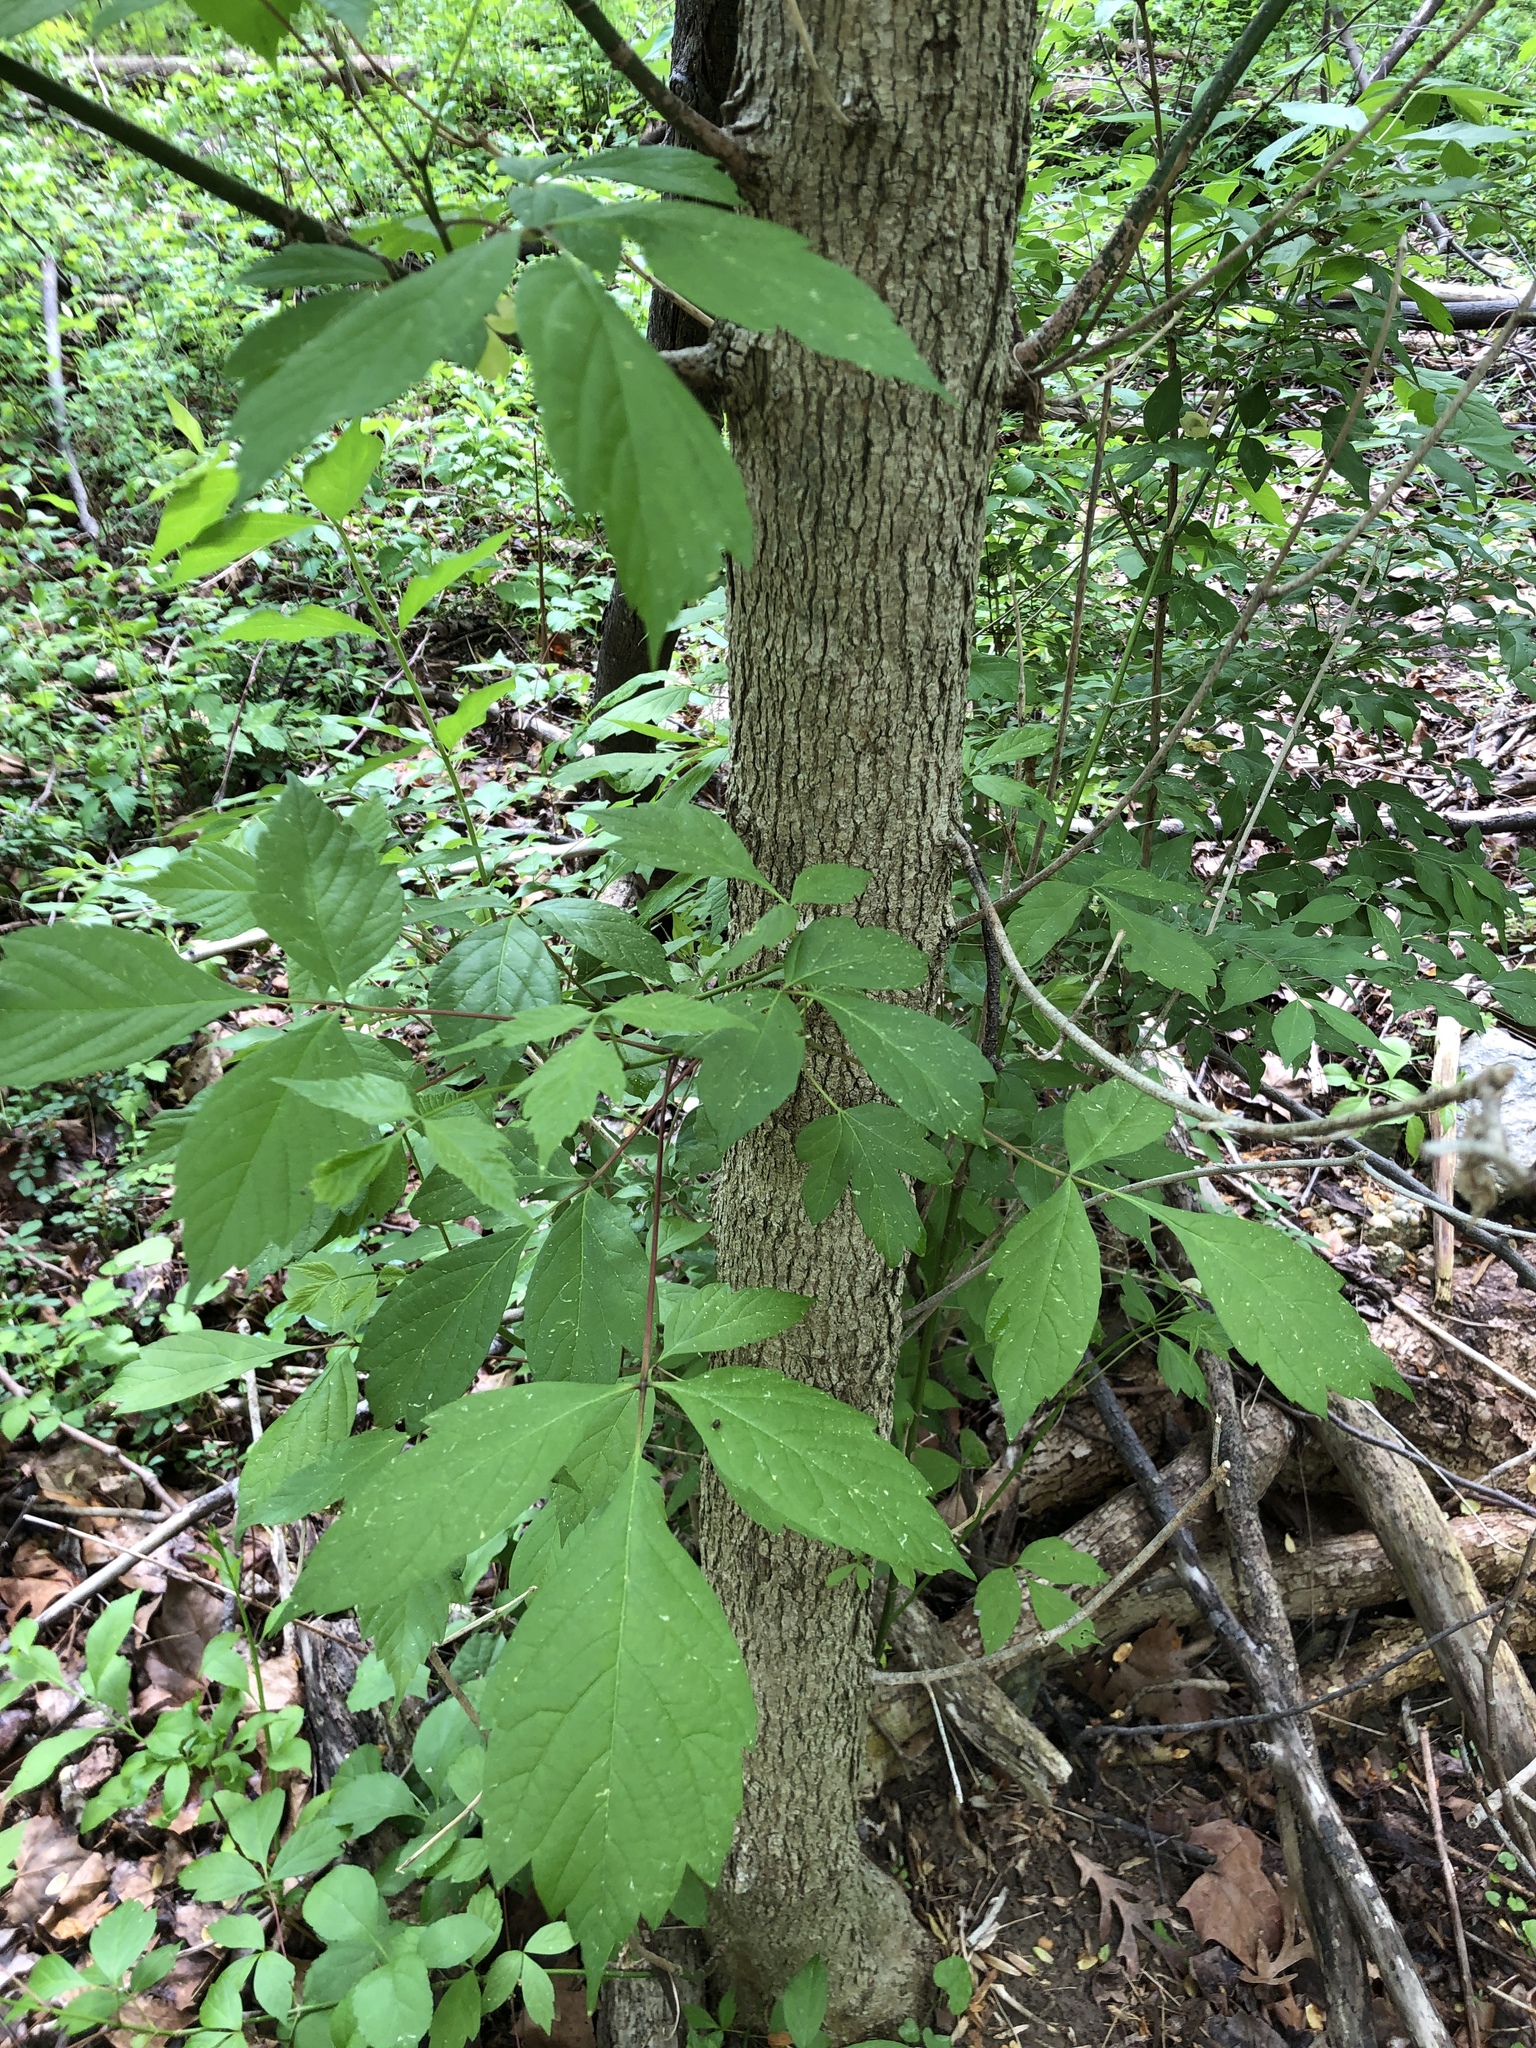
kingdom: Plantae
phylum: Tracheophyta
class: Magnoliopsida
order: Sapindales
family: Sapindaceae
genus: Acer
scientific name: Acer negundo
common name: Ashleaf maple
